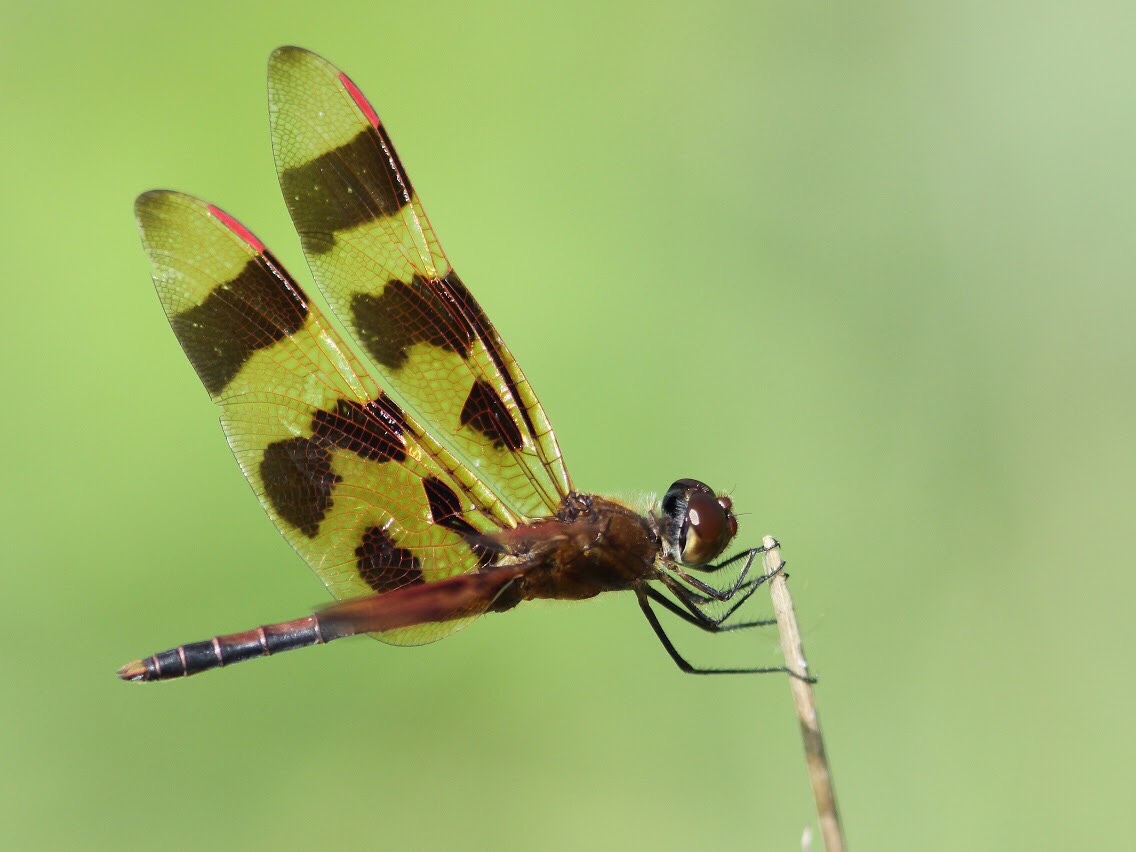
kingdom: Animalia
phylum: Arthropoda
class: Insecta
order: Odonata
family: Libellulidae
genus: Celithemis
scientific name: Celithemis eponina
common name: Halloween pennant
